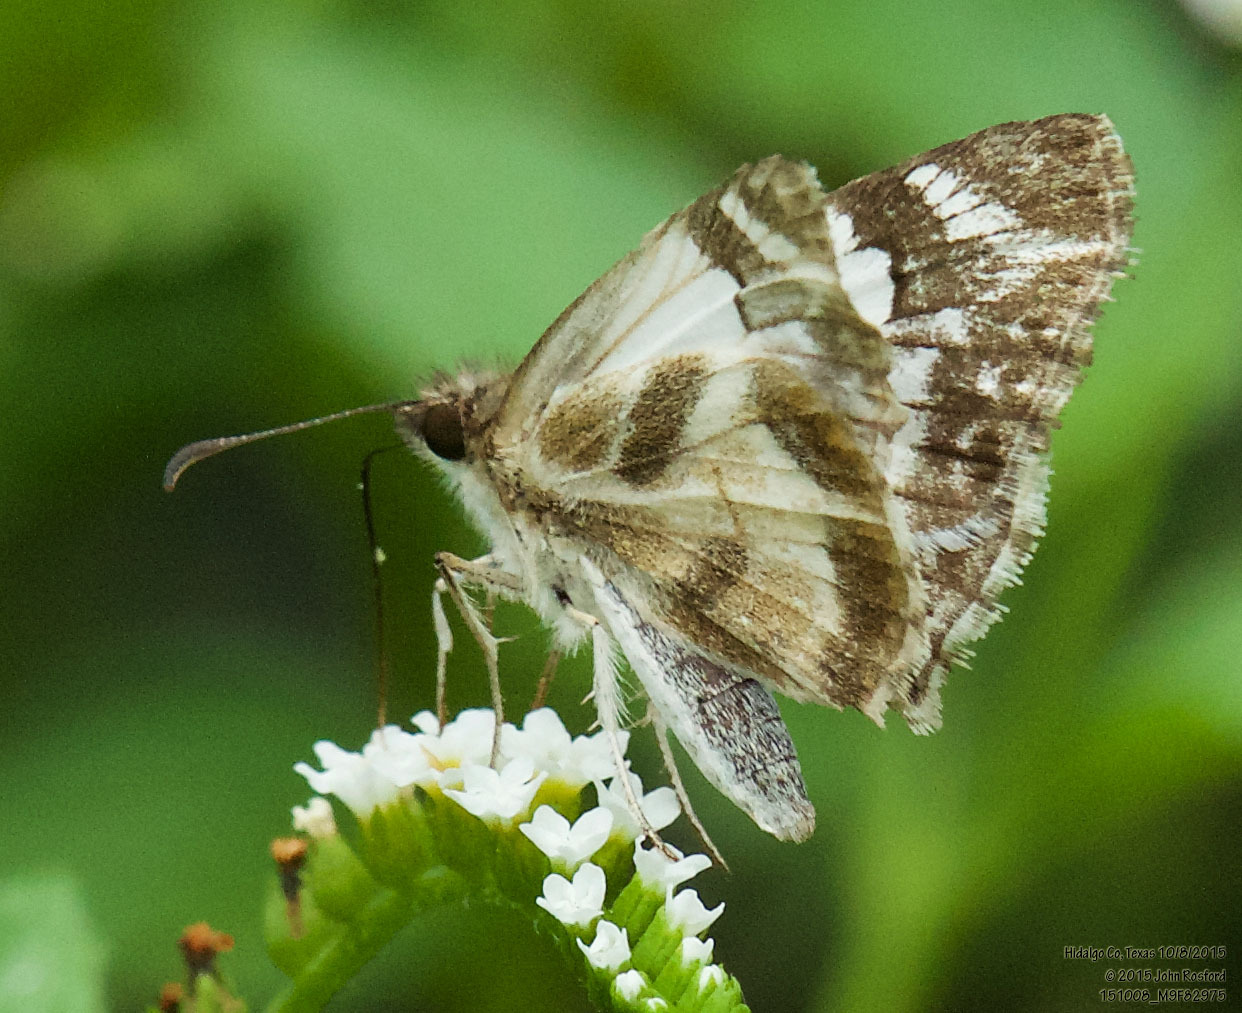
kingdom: Animalia
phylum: Arthropoda
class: Insecta
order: Lepidoptera
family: Hesperiidae
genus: Heliopetes
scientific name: Heliopetes macaira
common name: Turk's-cap white-skipper
